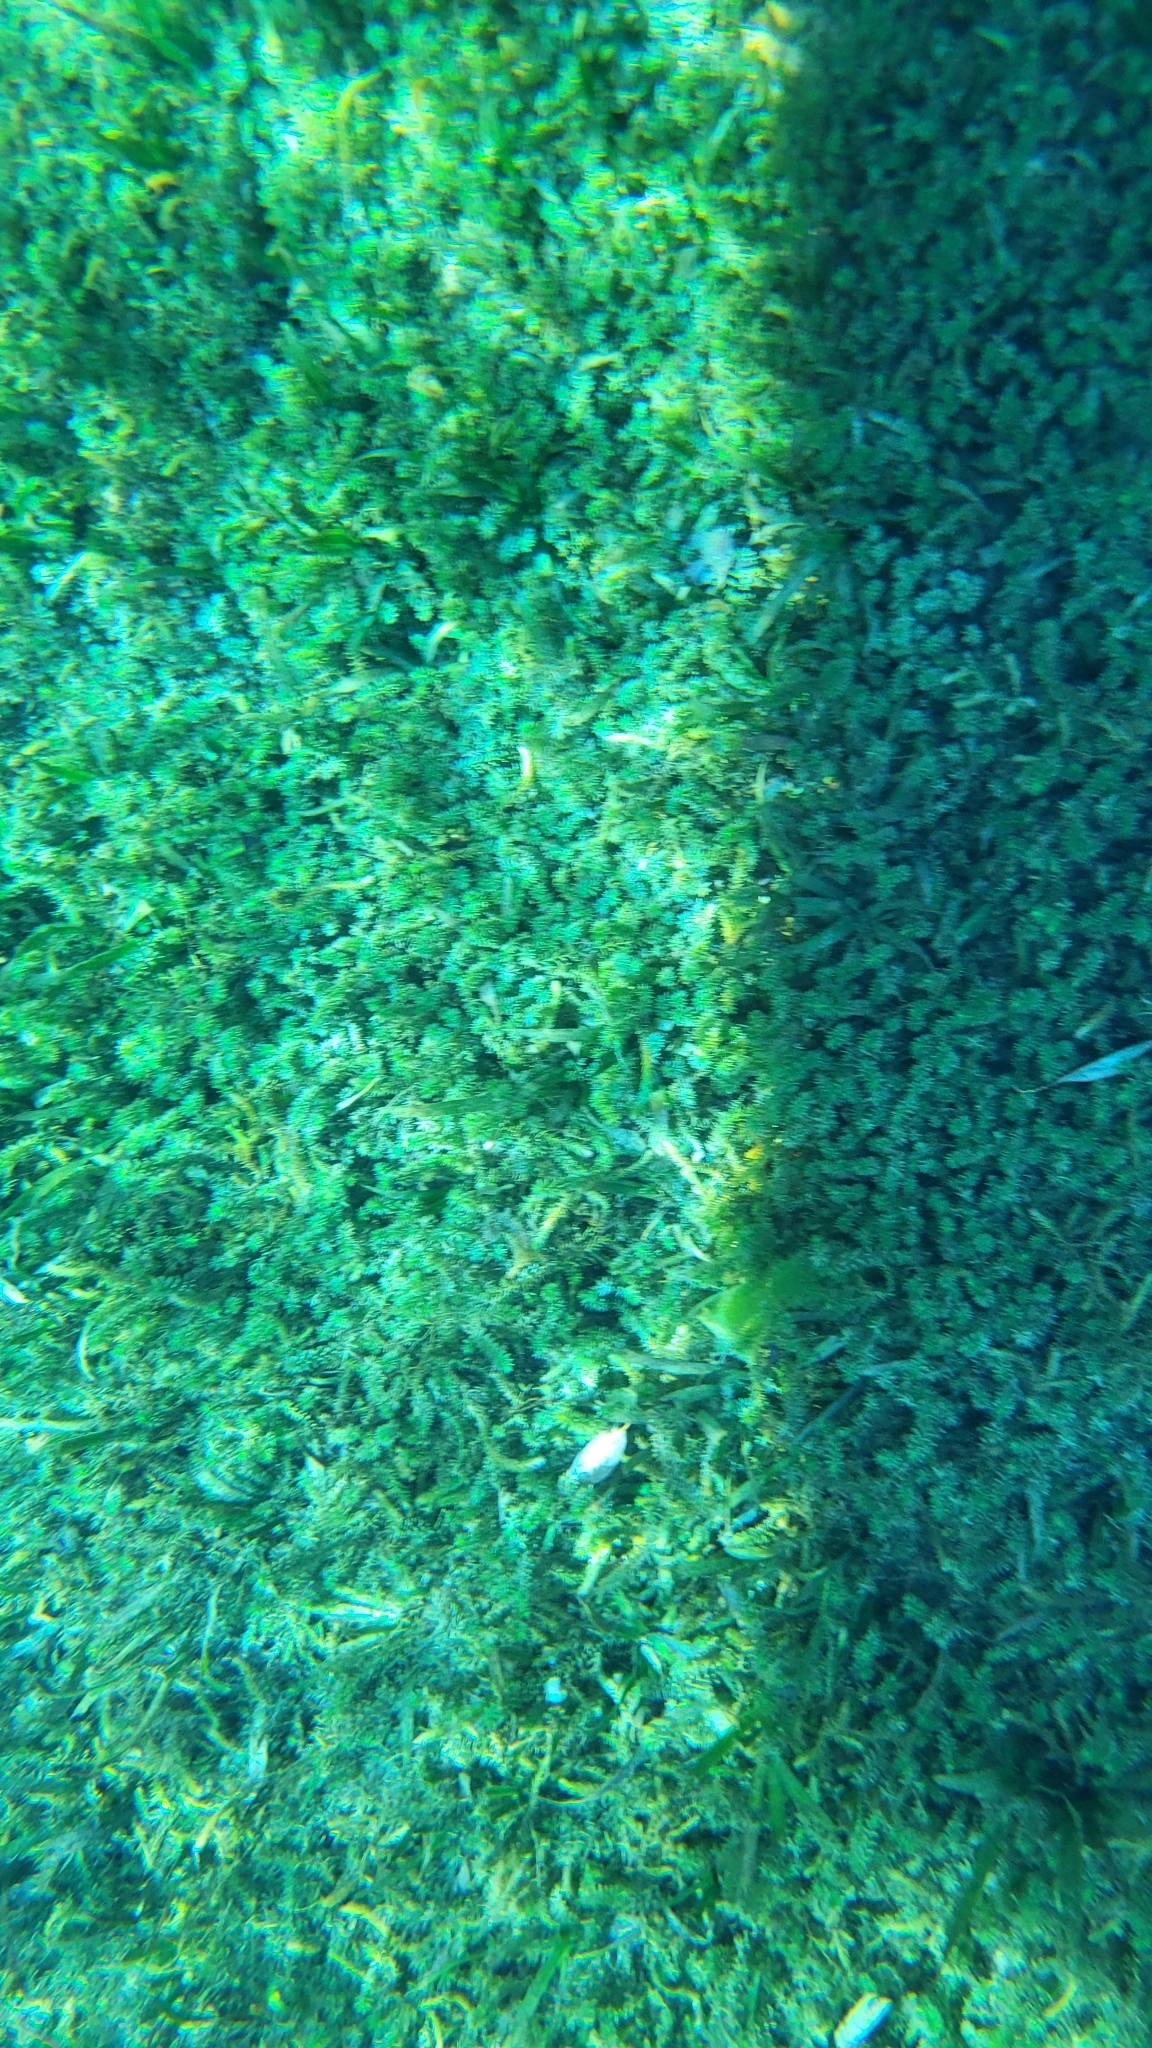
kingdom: Plantae
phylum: Tracheophyta
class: Liliopsida
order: Alismatales
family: Hydrocharitaceae
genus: Hydrilla
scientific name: Hydrilla verticillata
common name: Florida-elodea
